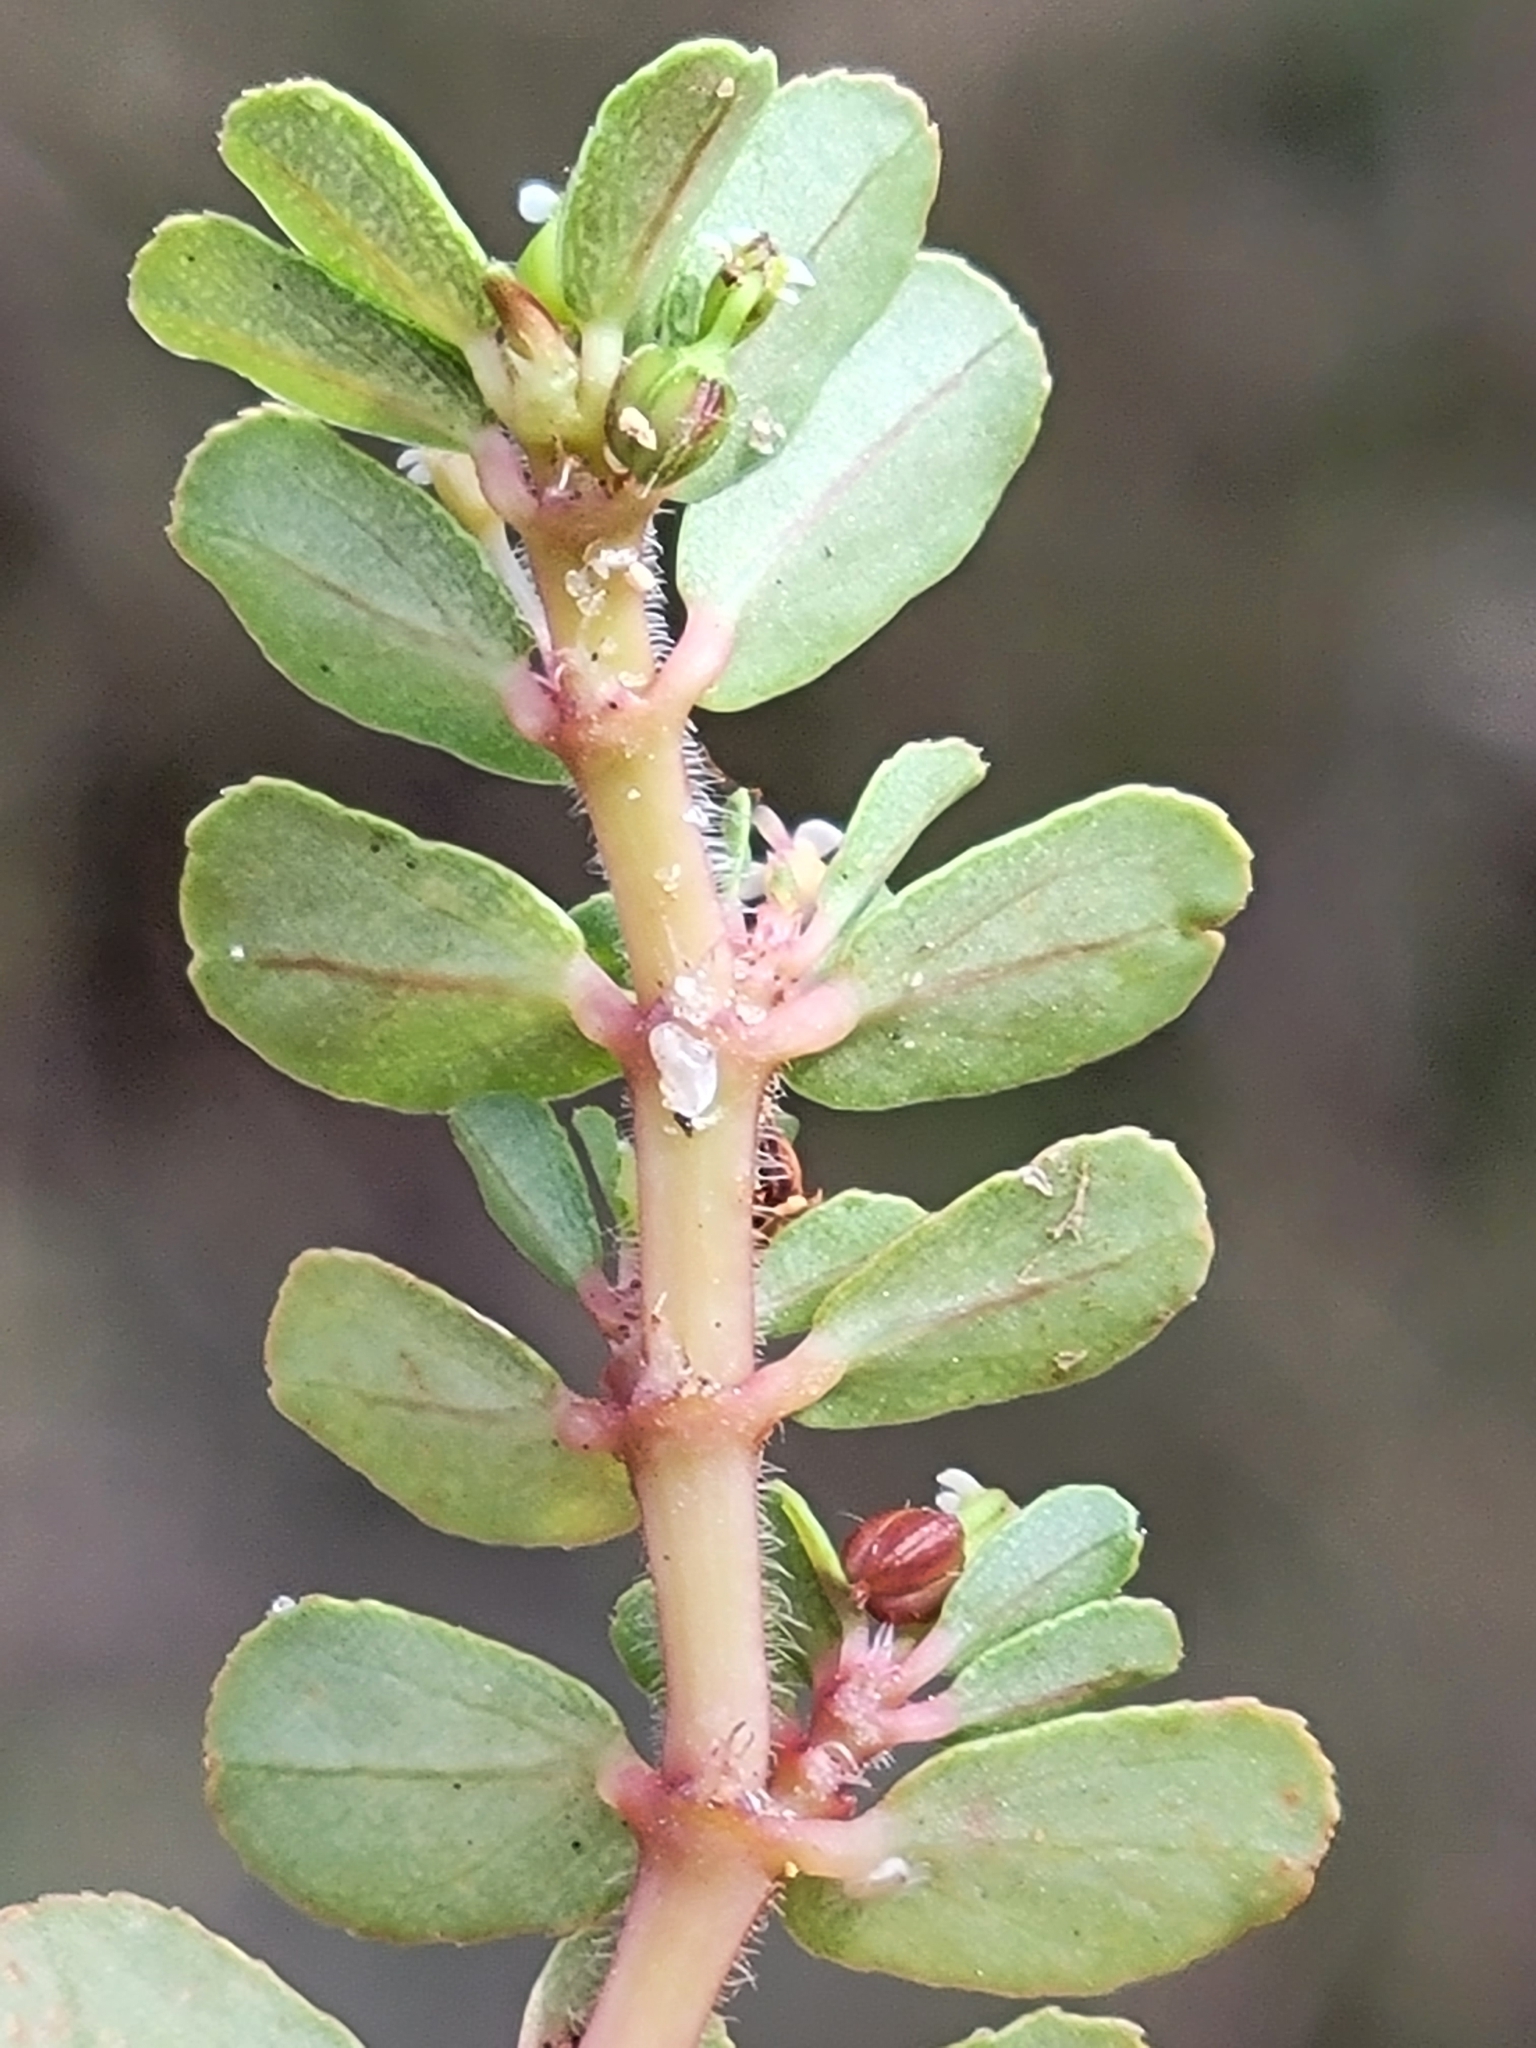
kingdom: Plantae
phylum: Tracheophyta
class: Magnoliopsida
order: Malpighiales
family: Euphorbiaceae
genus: Euphorbia
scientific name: Euphorbia mendezii
